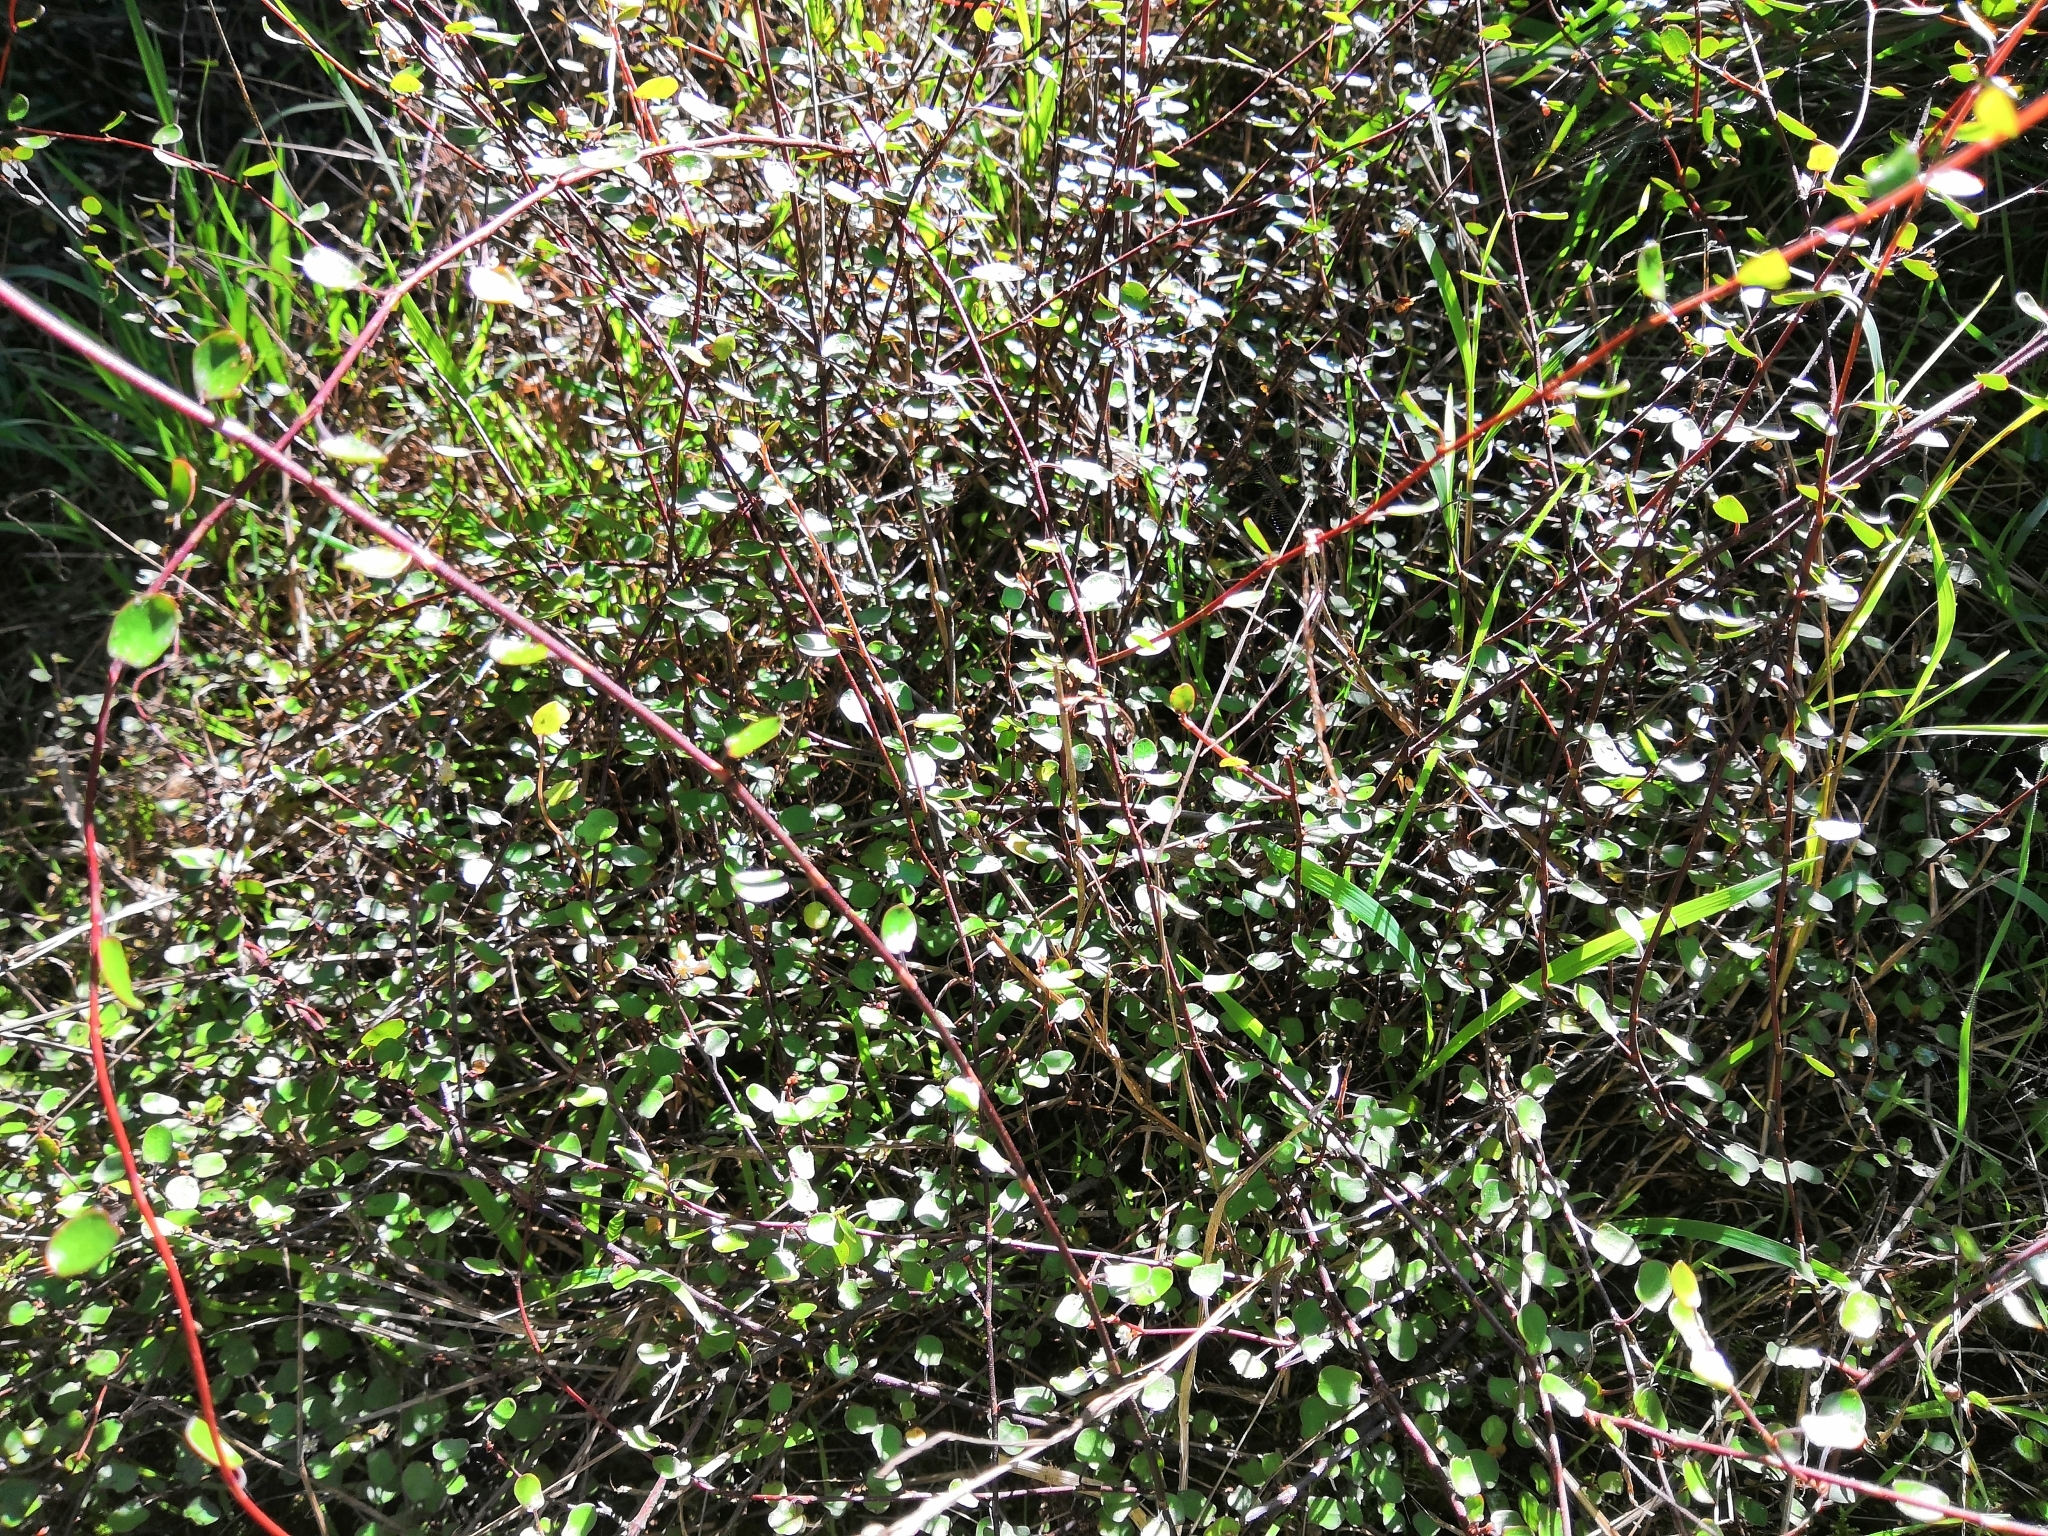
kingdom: Plantae
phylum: Tracheophyta
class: Magnoliopsida
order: Caryophyllales
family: Polygonaceae
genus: Muehlenbeckia
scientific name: Muehlenbeckia complexa
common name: Wireplant
